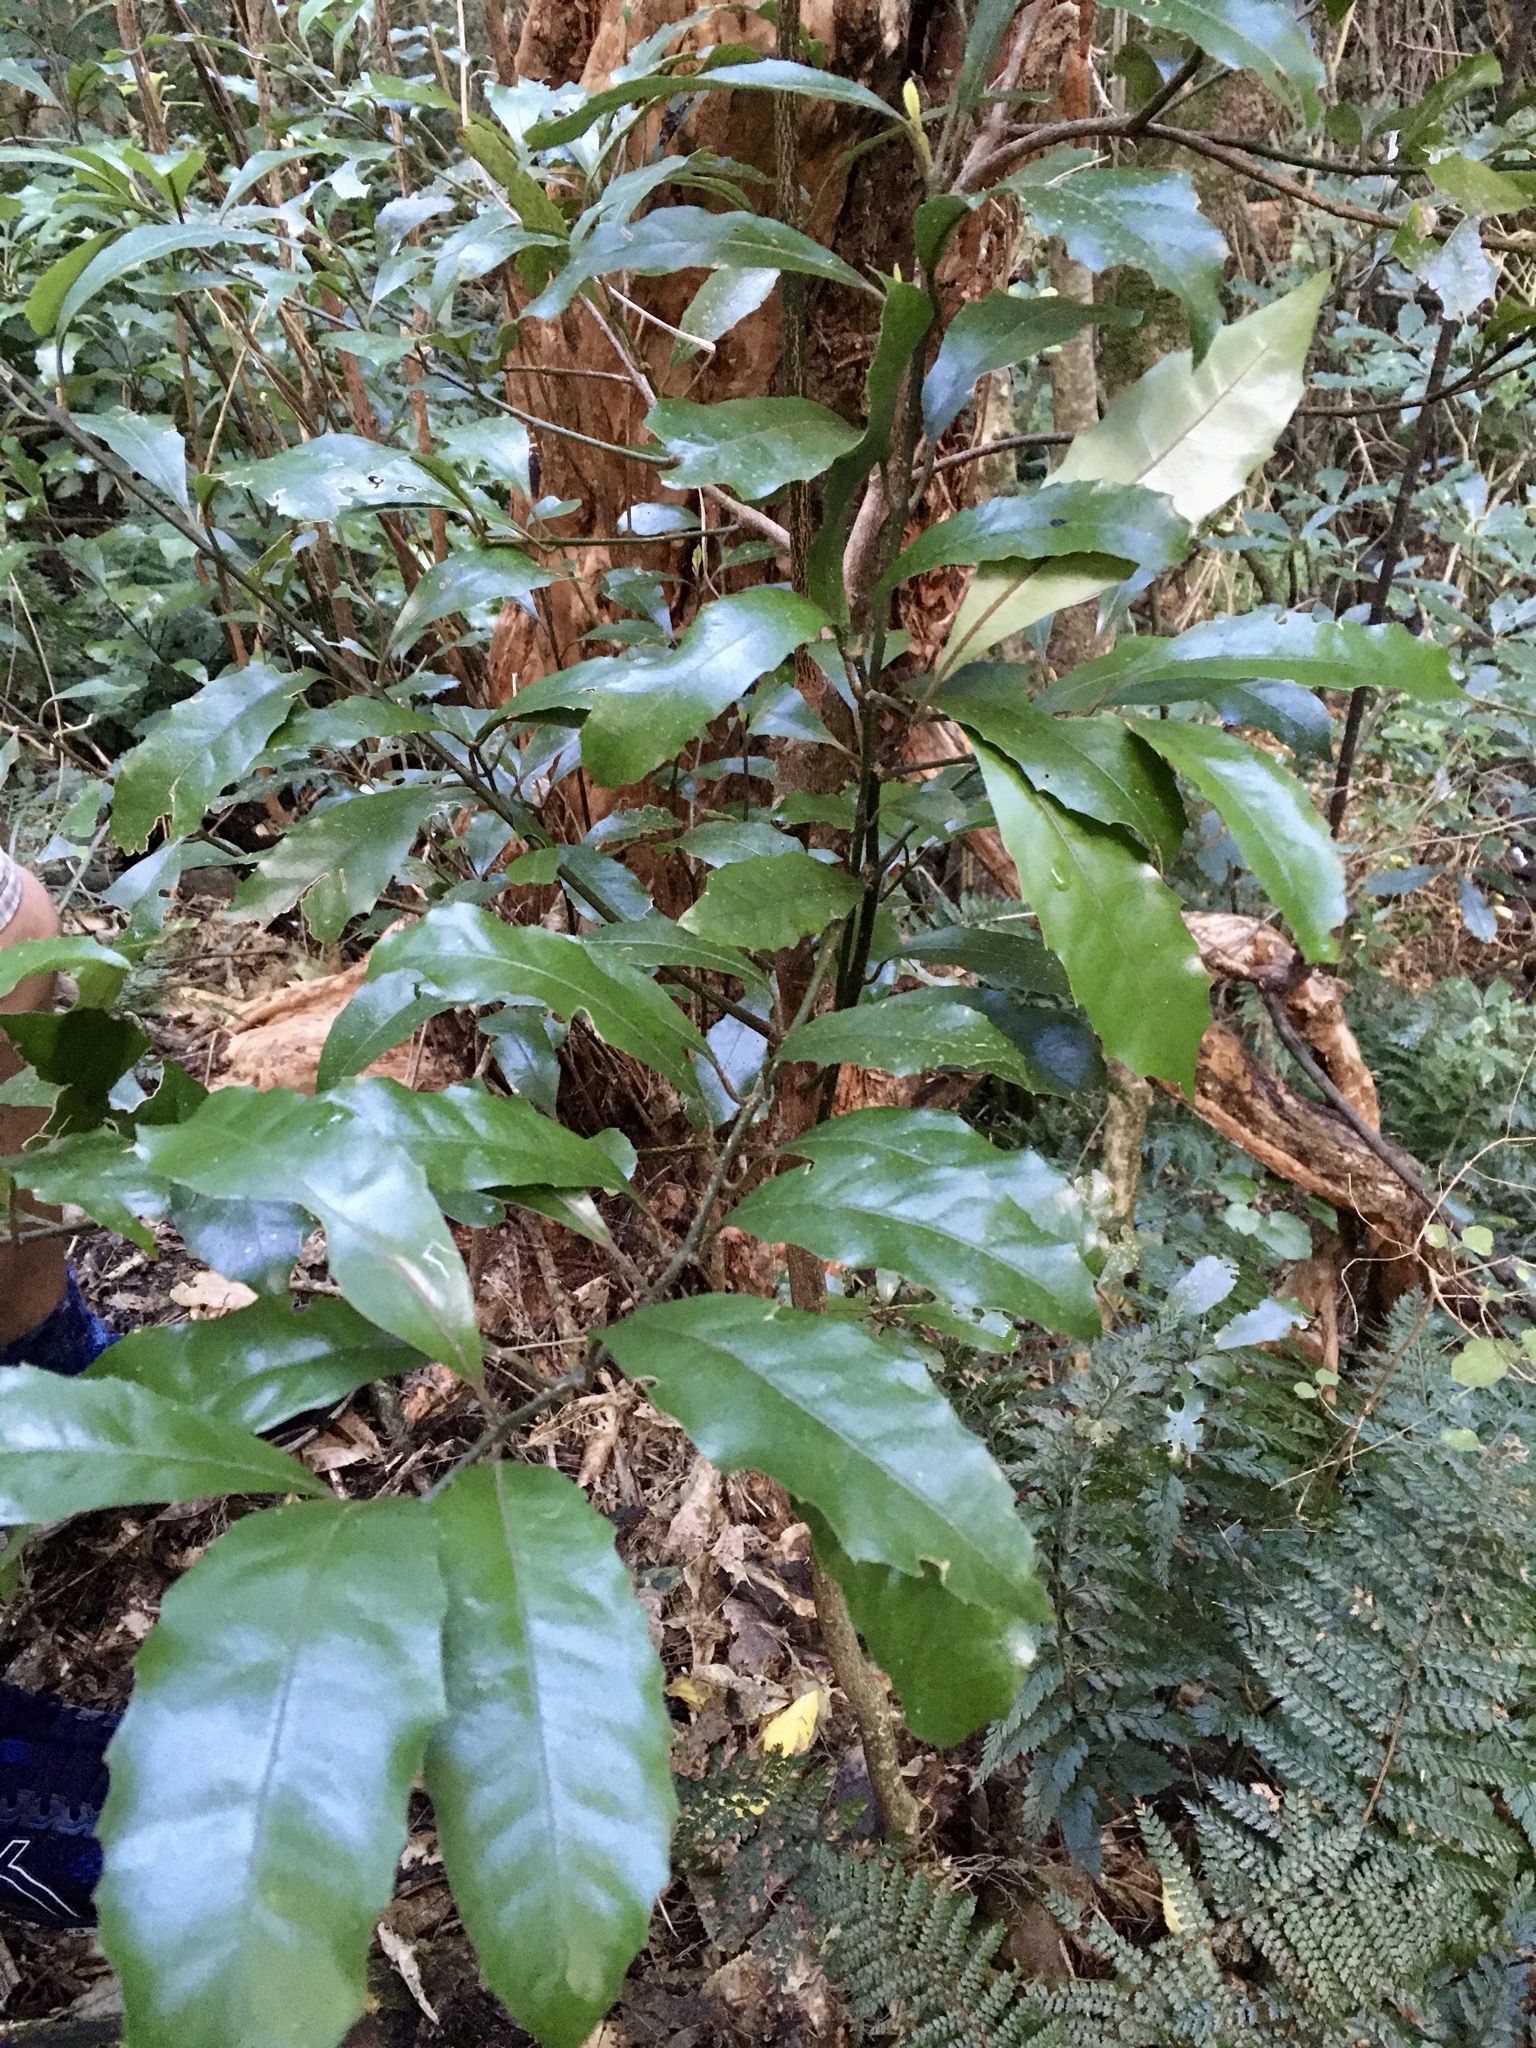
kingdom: Plantae
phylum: Tracheophyta
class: Magnoliopsida
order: Laurales
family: Monimiaceae
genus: Hedycarya
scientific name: Hedycarya arborea
